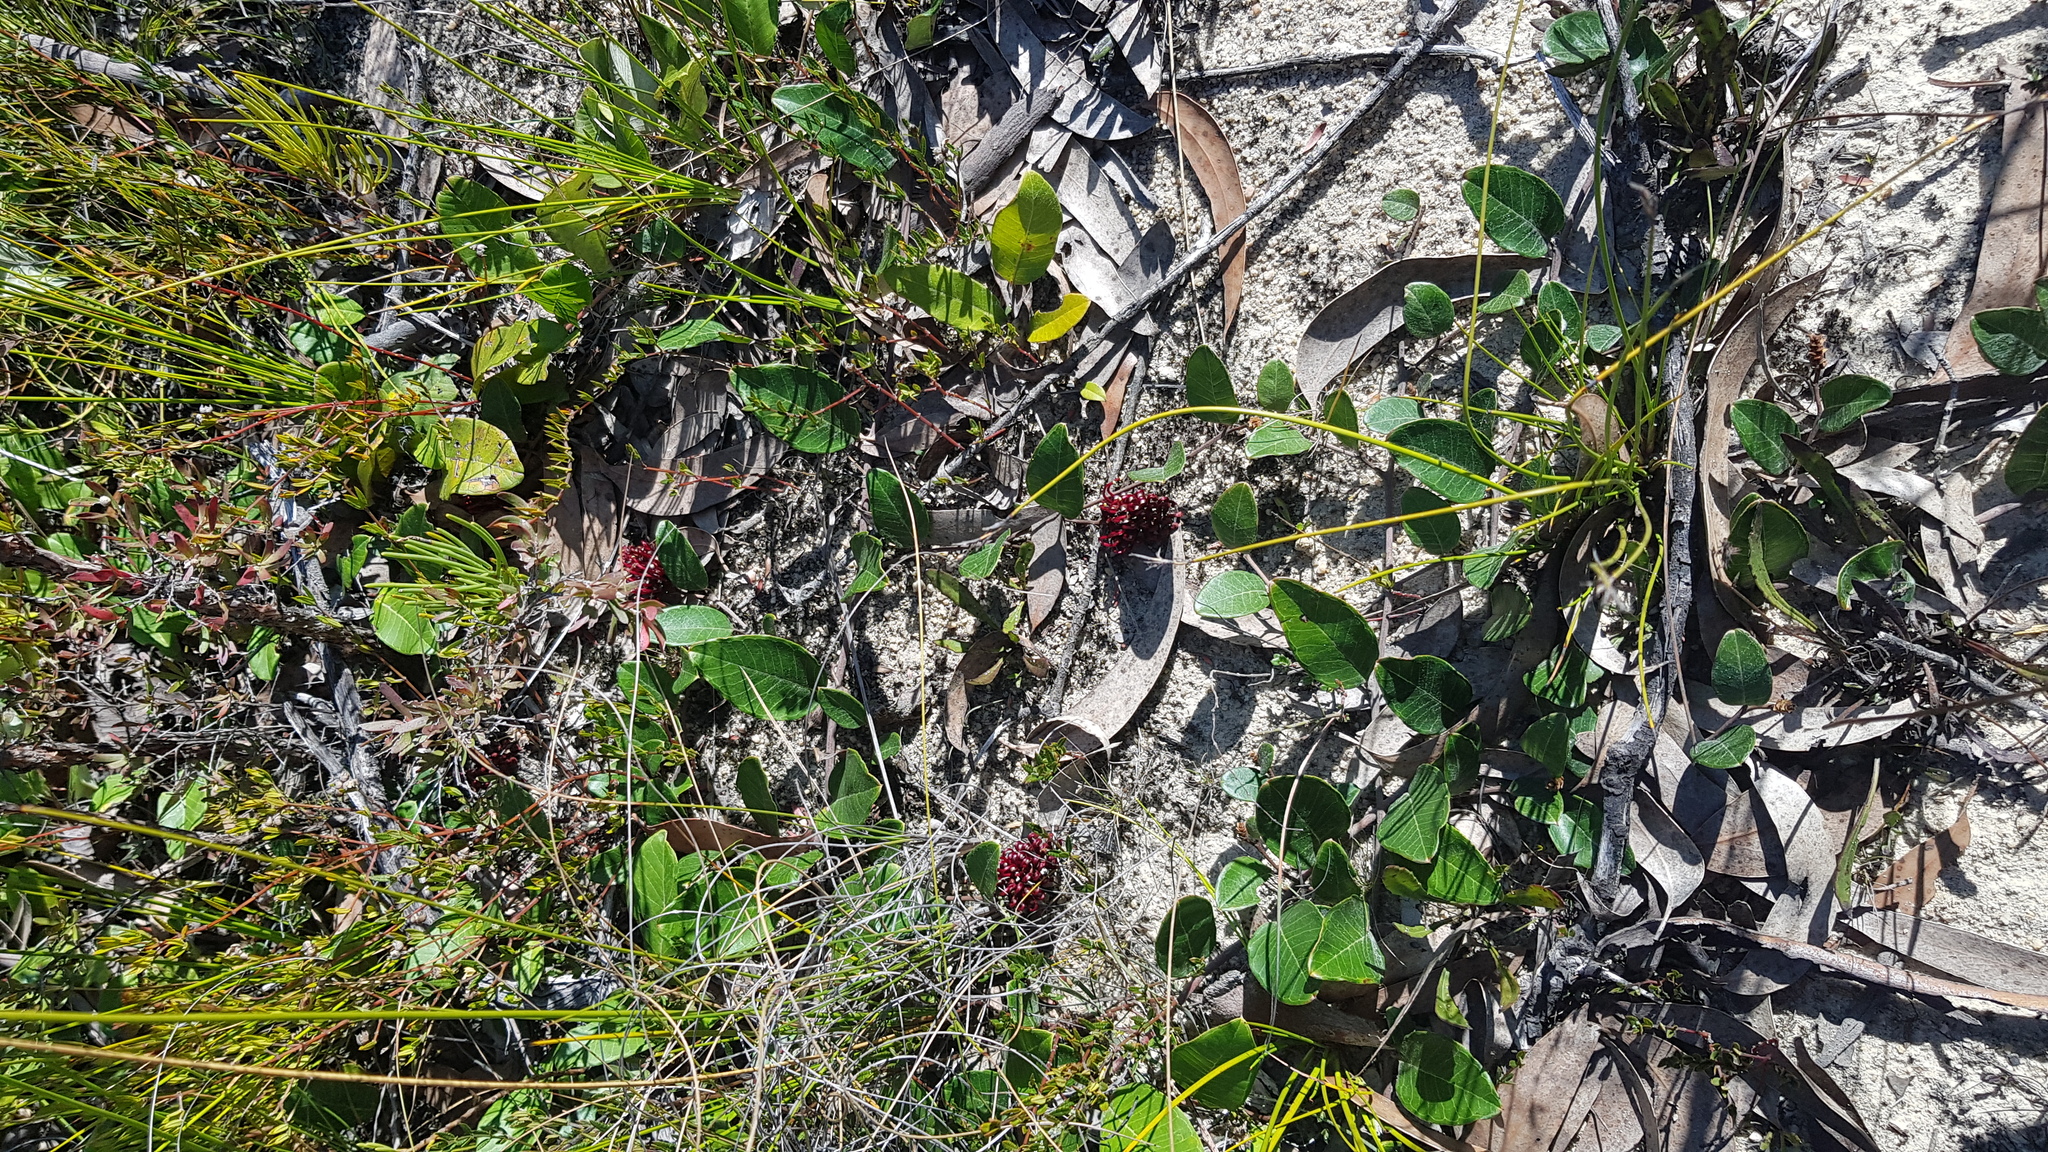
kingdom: Plantae
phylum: Tracheophyta
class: Magnoliopsida
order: Proteales
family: Proteaceae
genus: Grevillea
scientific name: Grevillea laurifolia
